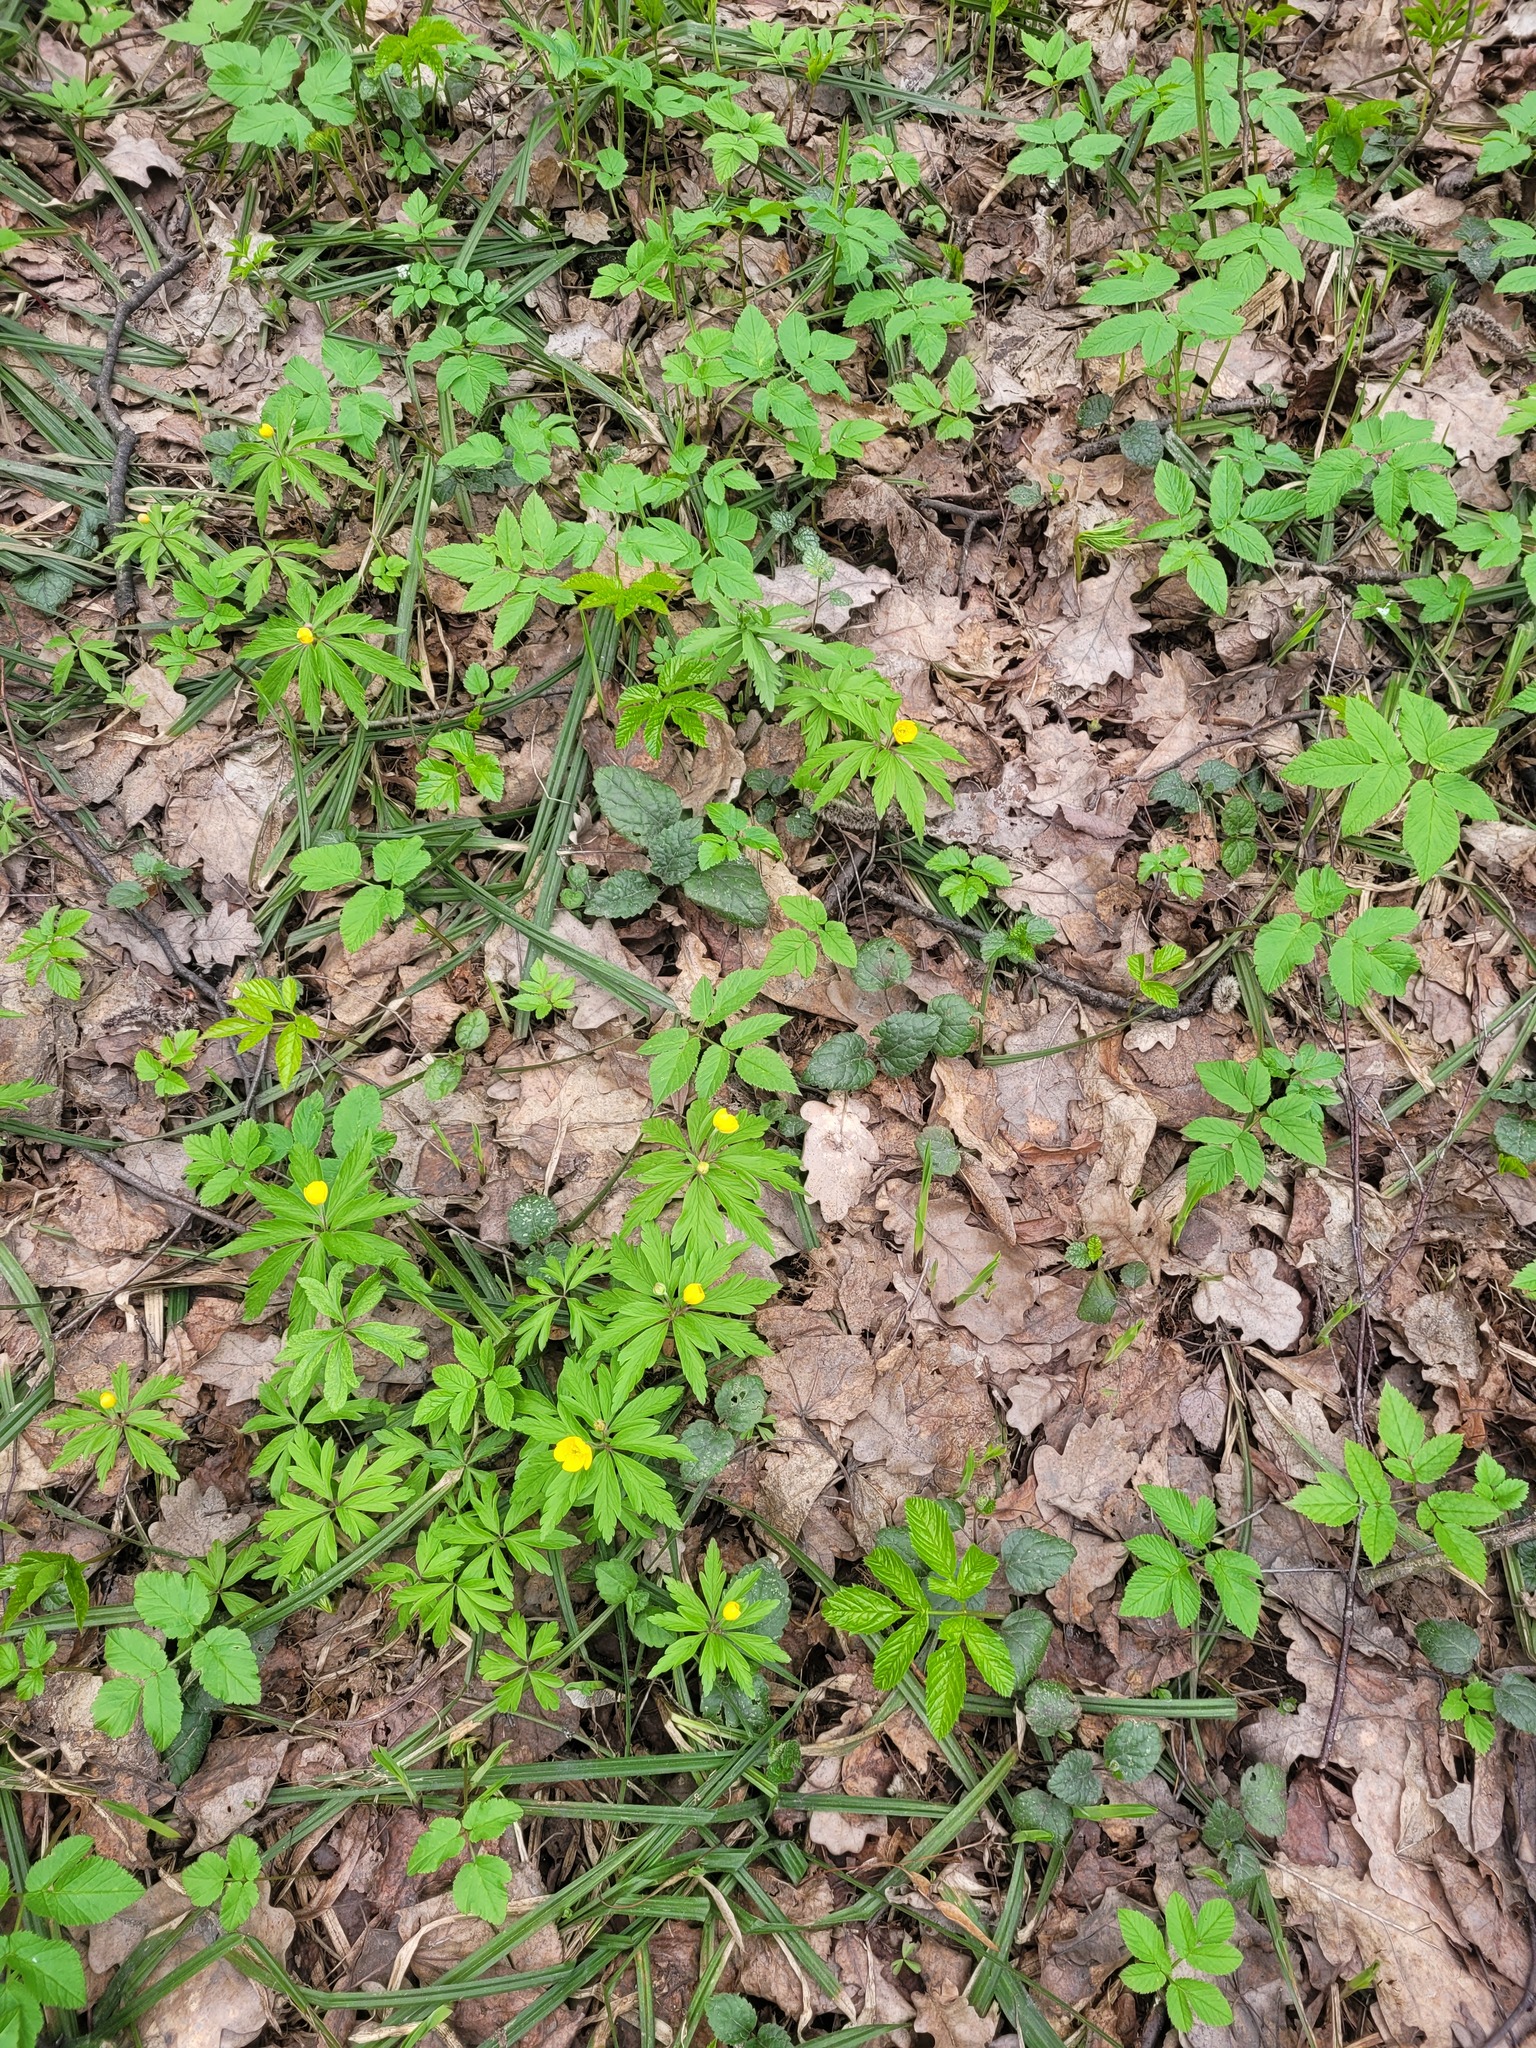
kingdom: Plantae
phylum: Tracheophyta
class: Magnoliopsida
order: Ranunculales
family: Ranunculaceae
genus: Anemone
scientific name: Anemone ranunculoides
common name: Yellow anemone
